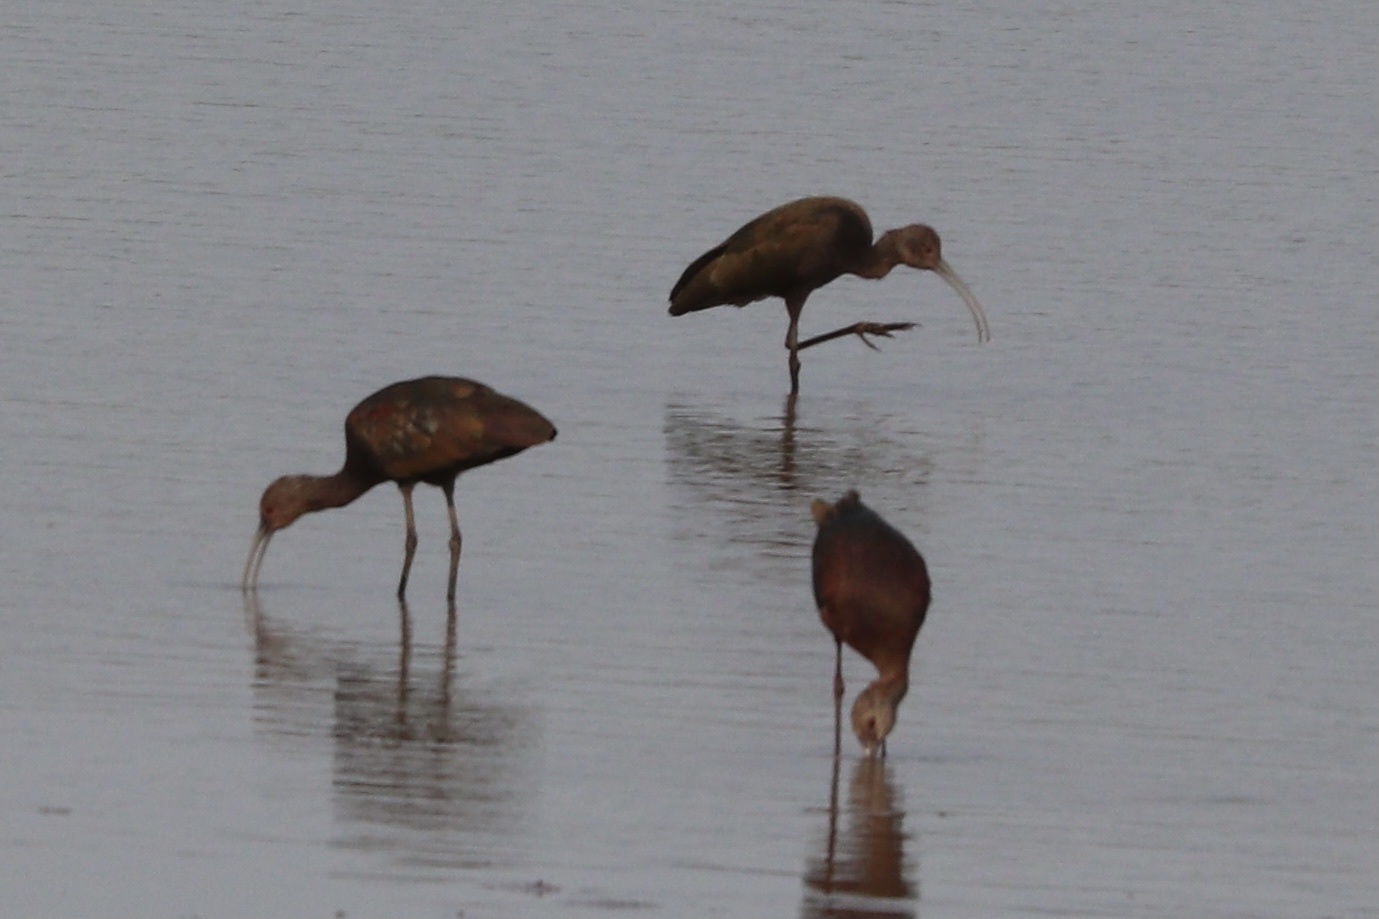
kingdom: Animalia
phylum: Chordata
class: Aves
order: Pelecaniformes
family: Threskiornithidae
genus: Plegadis
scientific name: Plegadis chihi
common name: White-faced ibis
